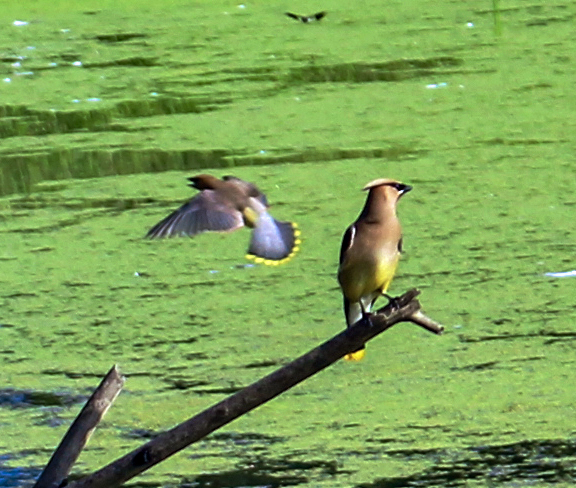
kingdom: Animalia
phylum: Chordata
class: Aves
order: Passeriformes
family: Bombycillidae
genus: Bombycilla
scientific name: Bombycilla cedrorum
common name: Cedar waxwing
